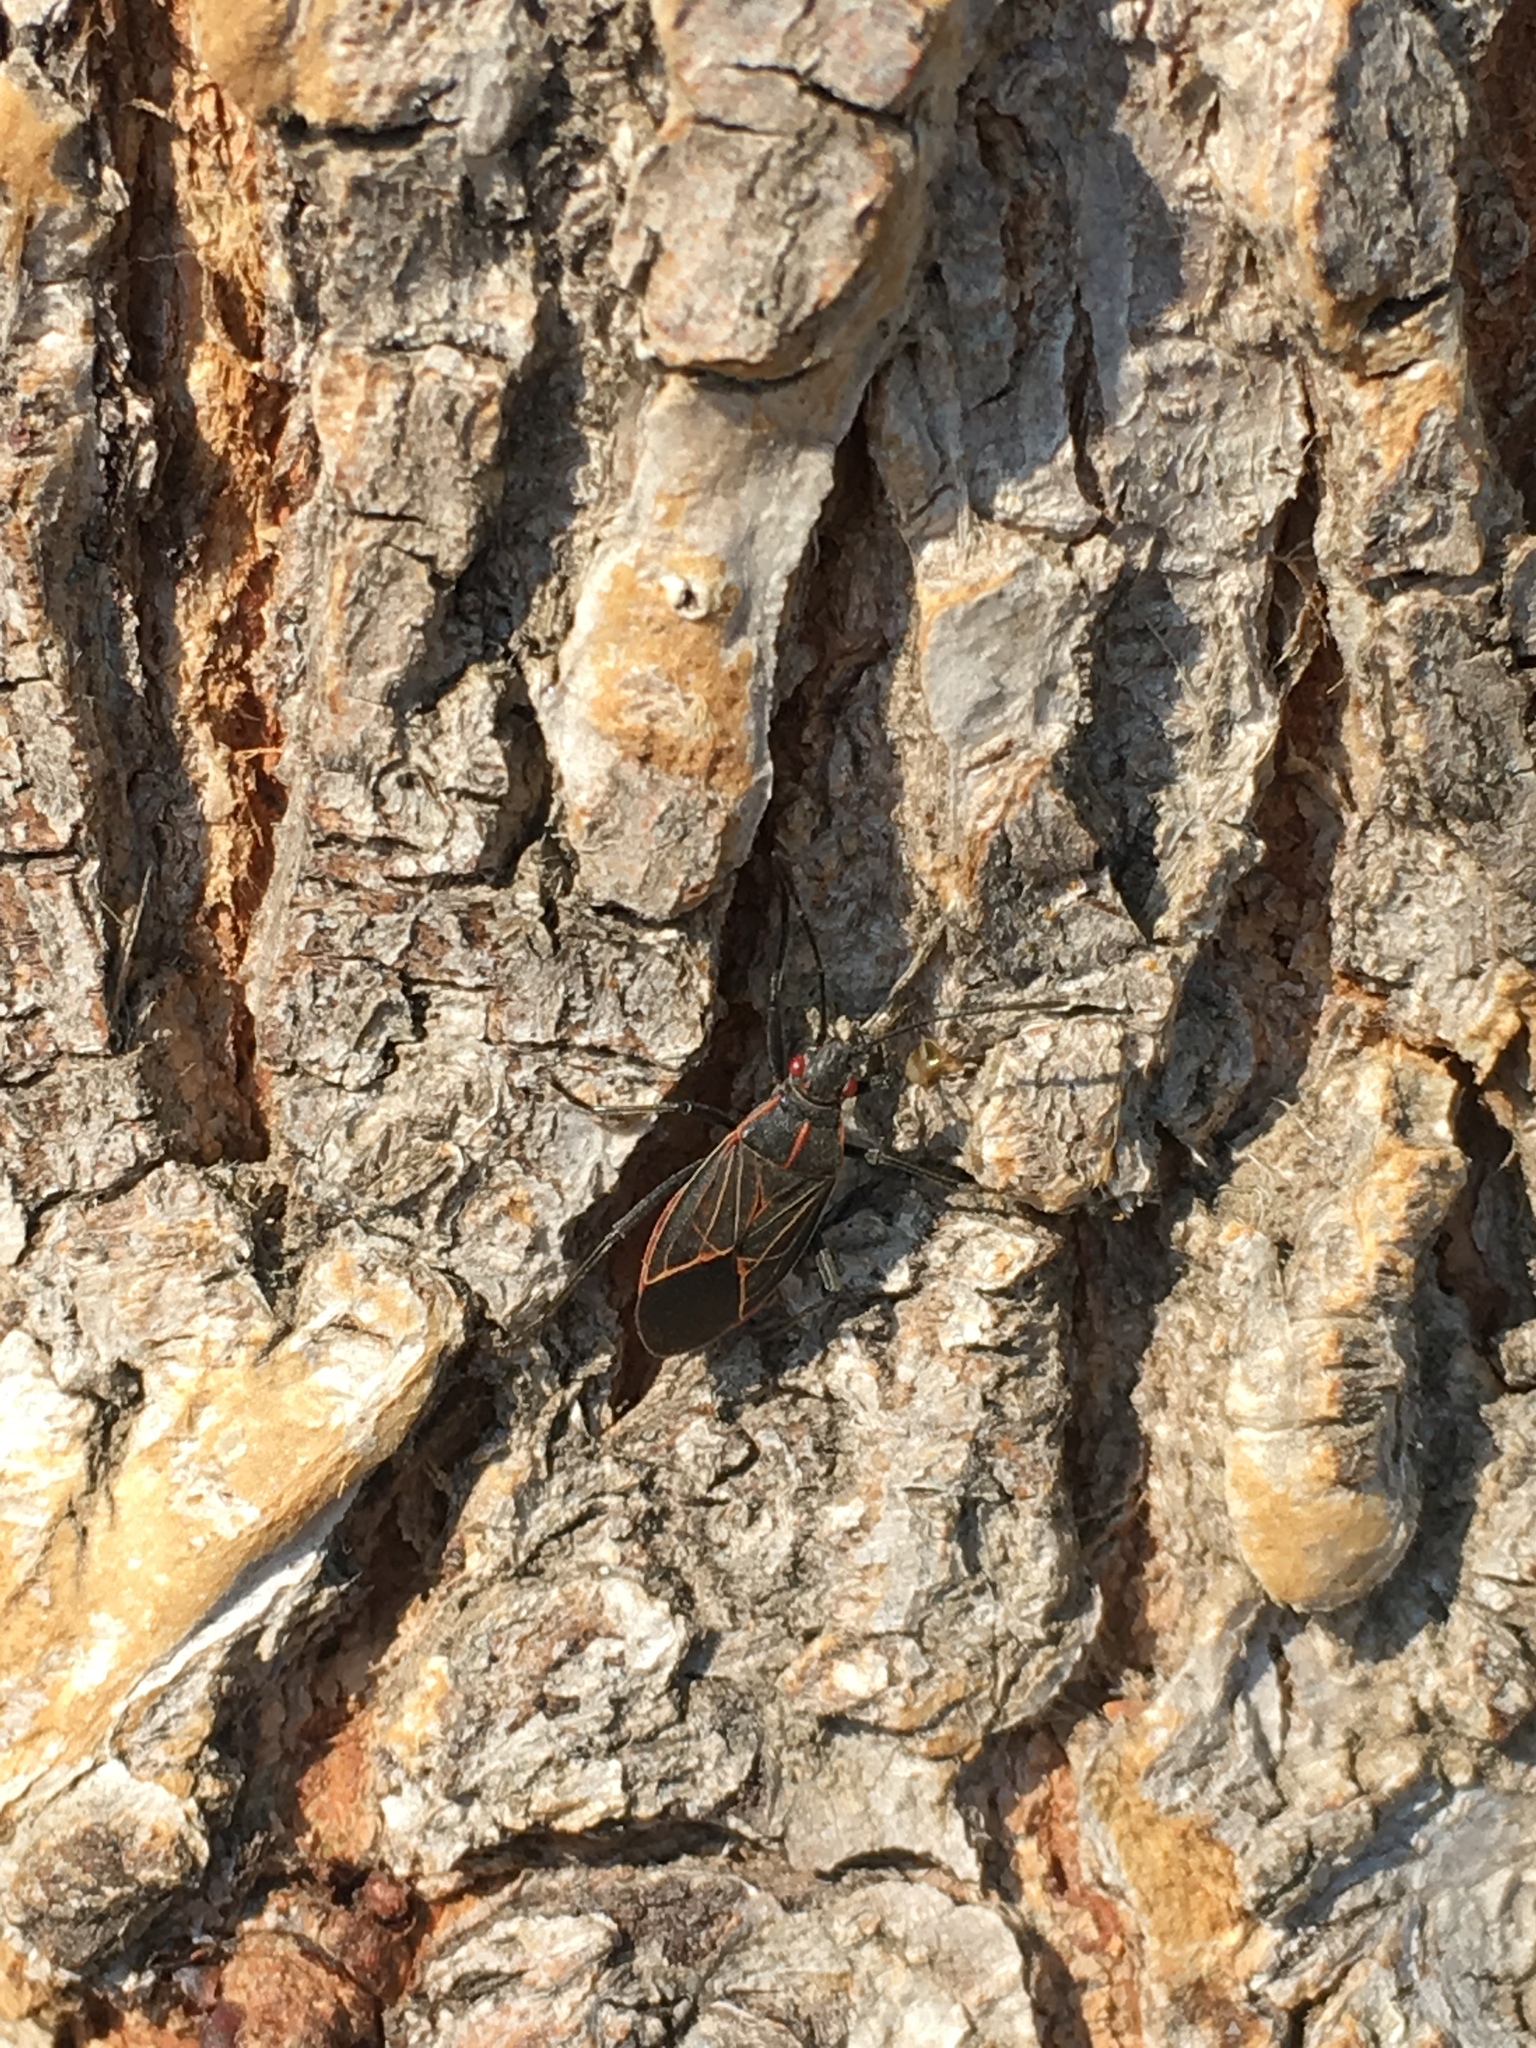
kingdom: Animalia
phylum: Arthropoda
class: Insecta
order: Hemiptera
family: Rhopalidae
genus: Boisea
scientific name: Boisea rubrolineata
